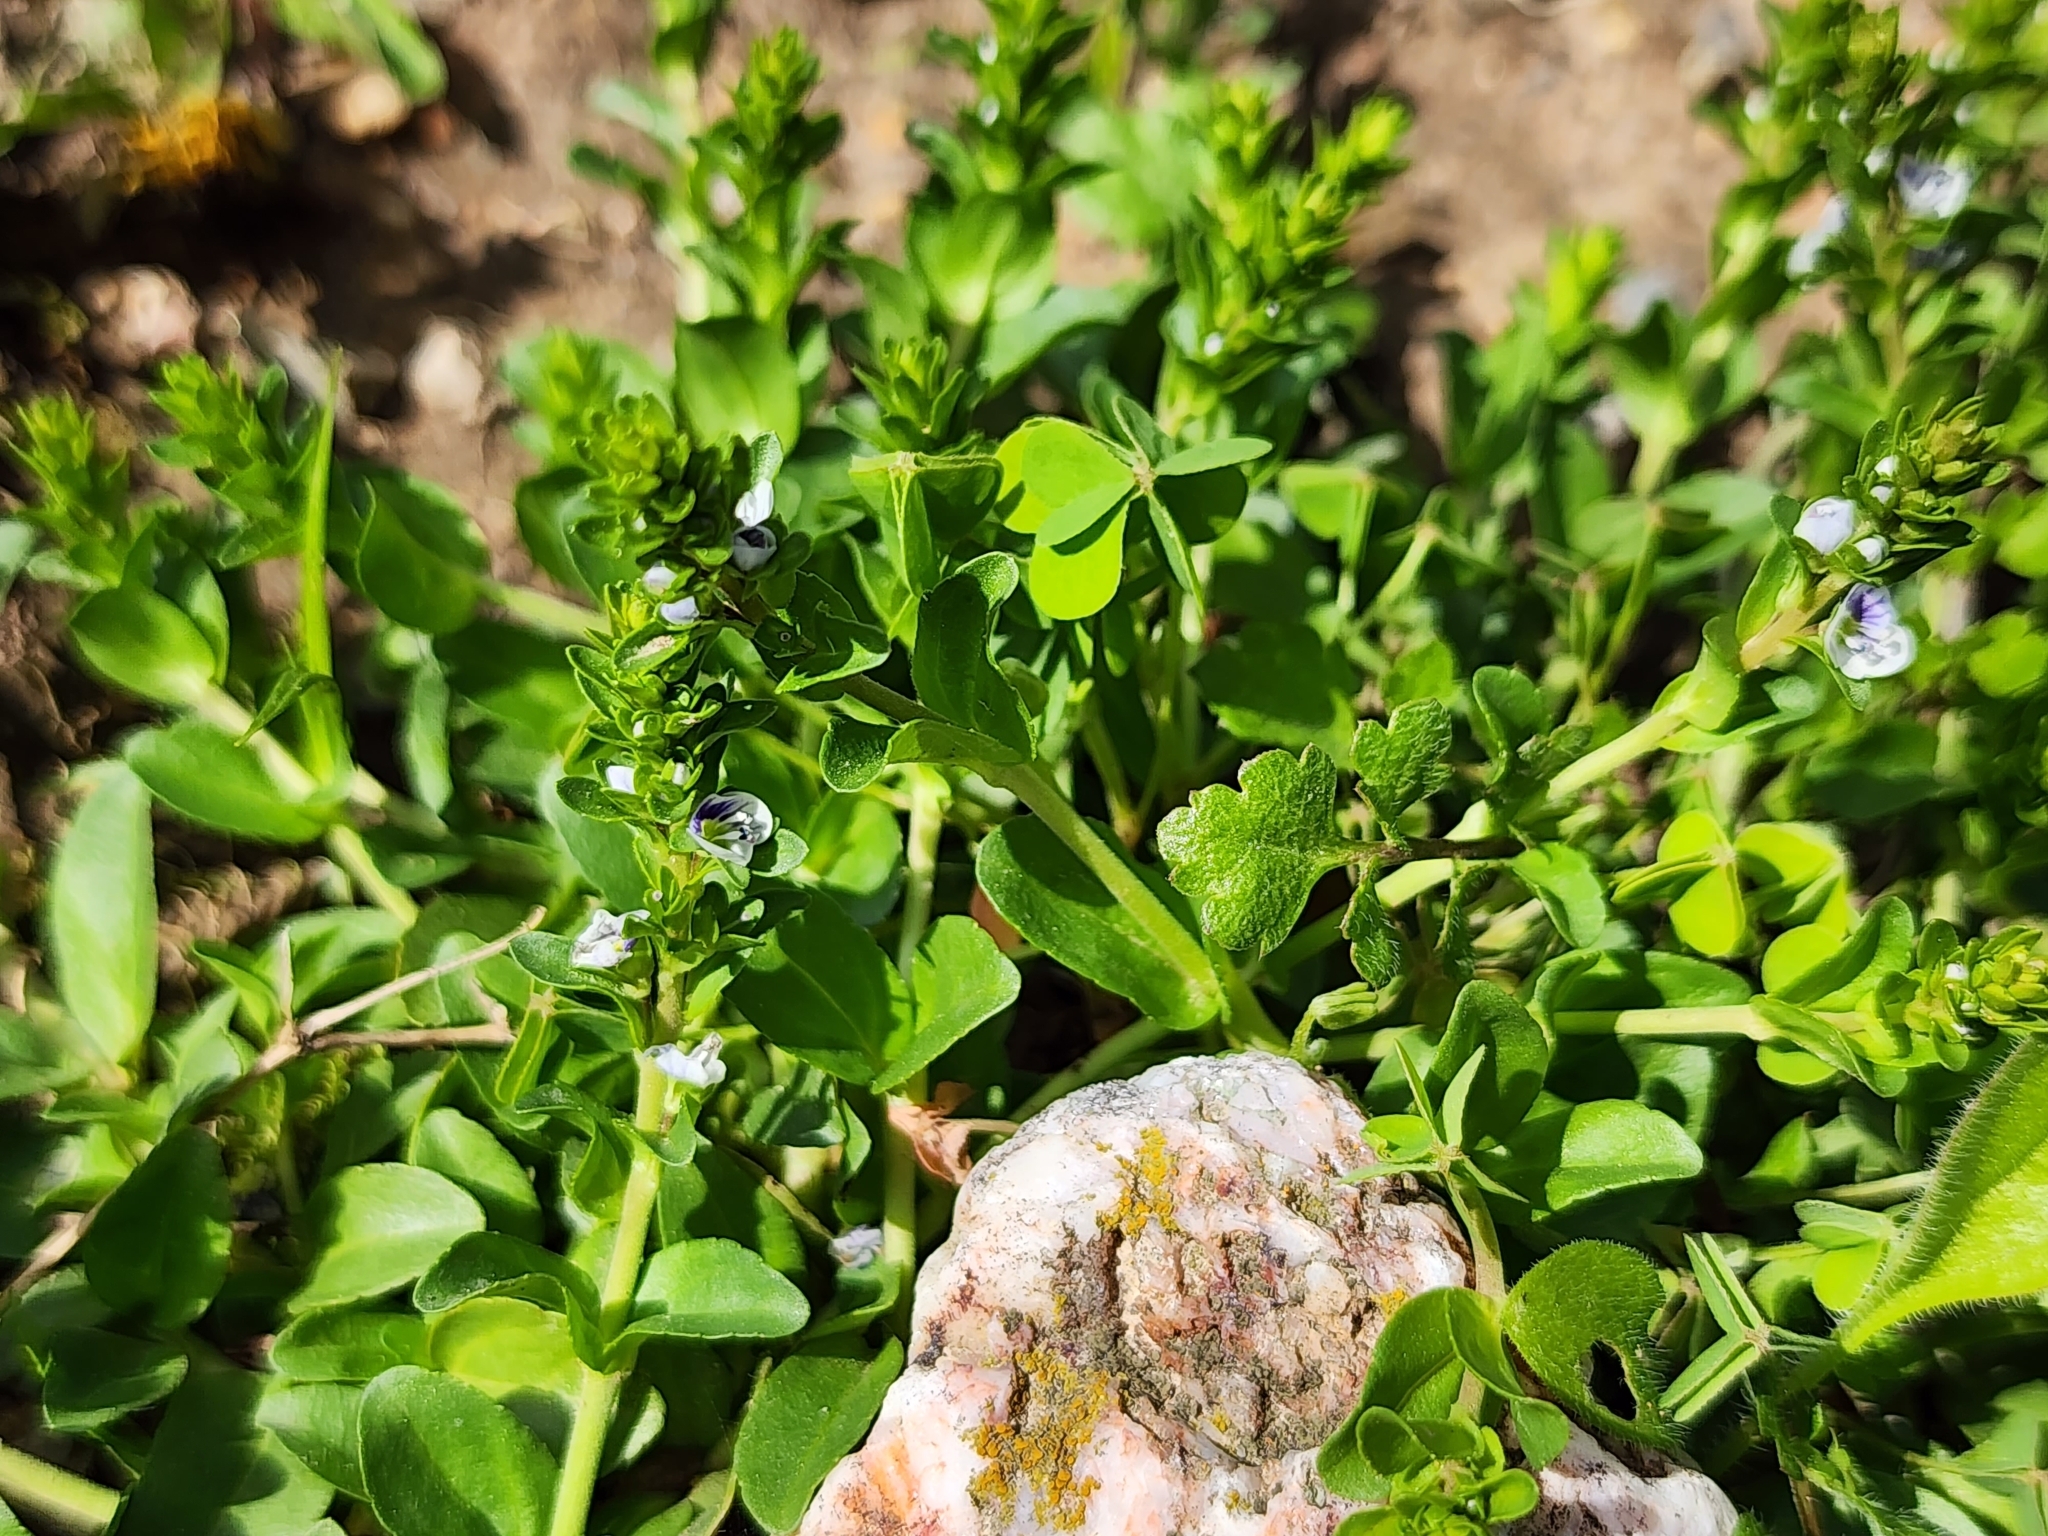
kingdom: Plantae
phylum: Tracheophyta
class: Magnoliopsida
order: Lamiales
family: Plantaginaceae
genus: Veronica
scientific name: Veronica serpyllifolia
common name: Thyme-leaved speedwell
